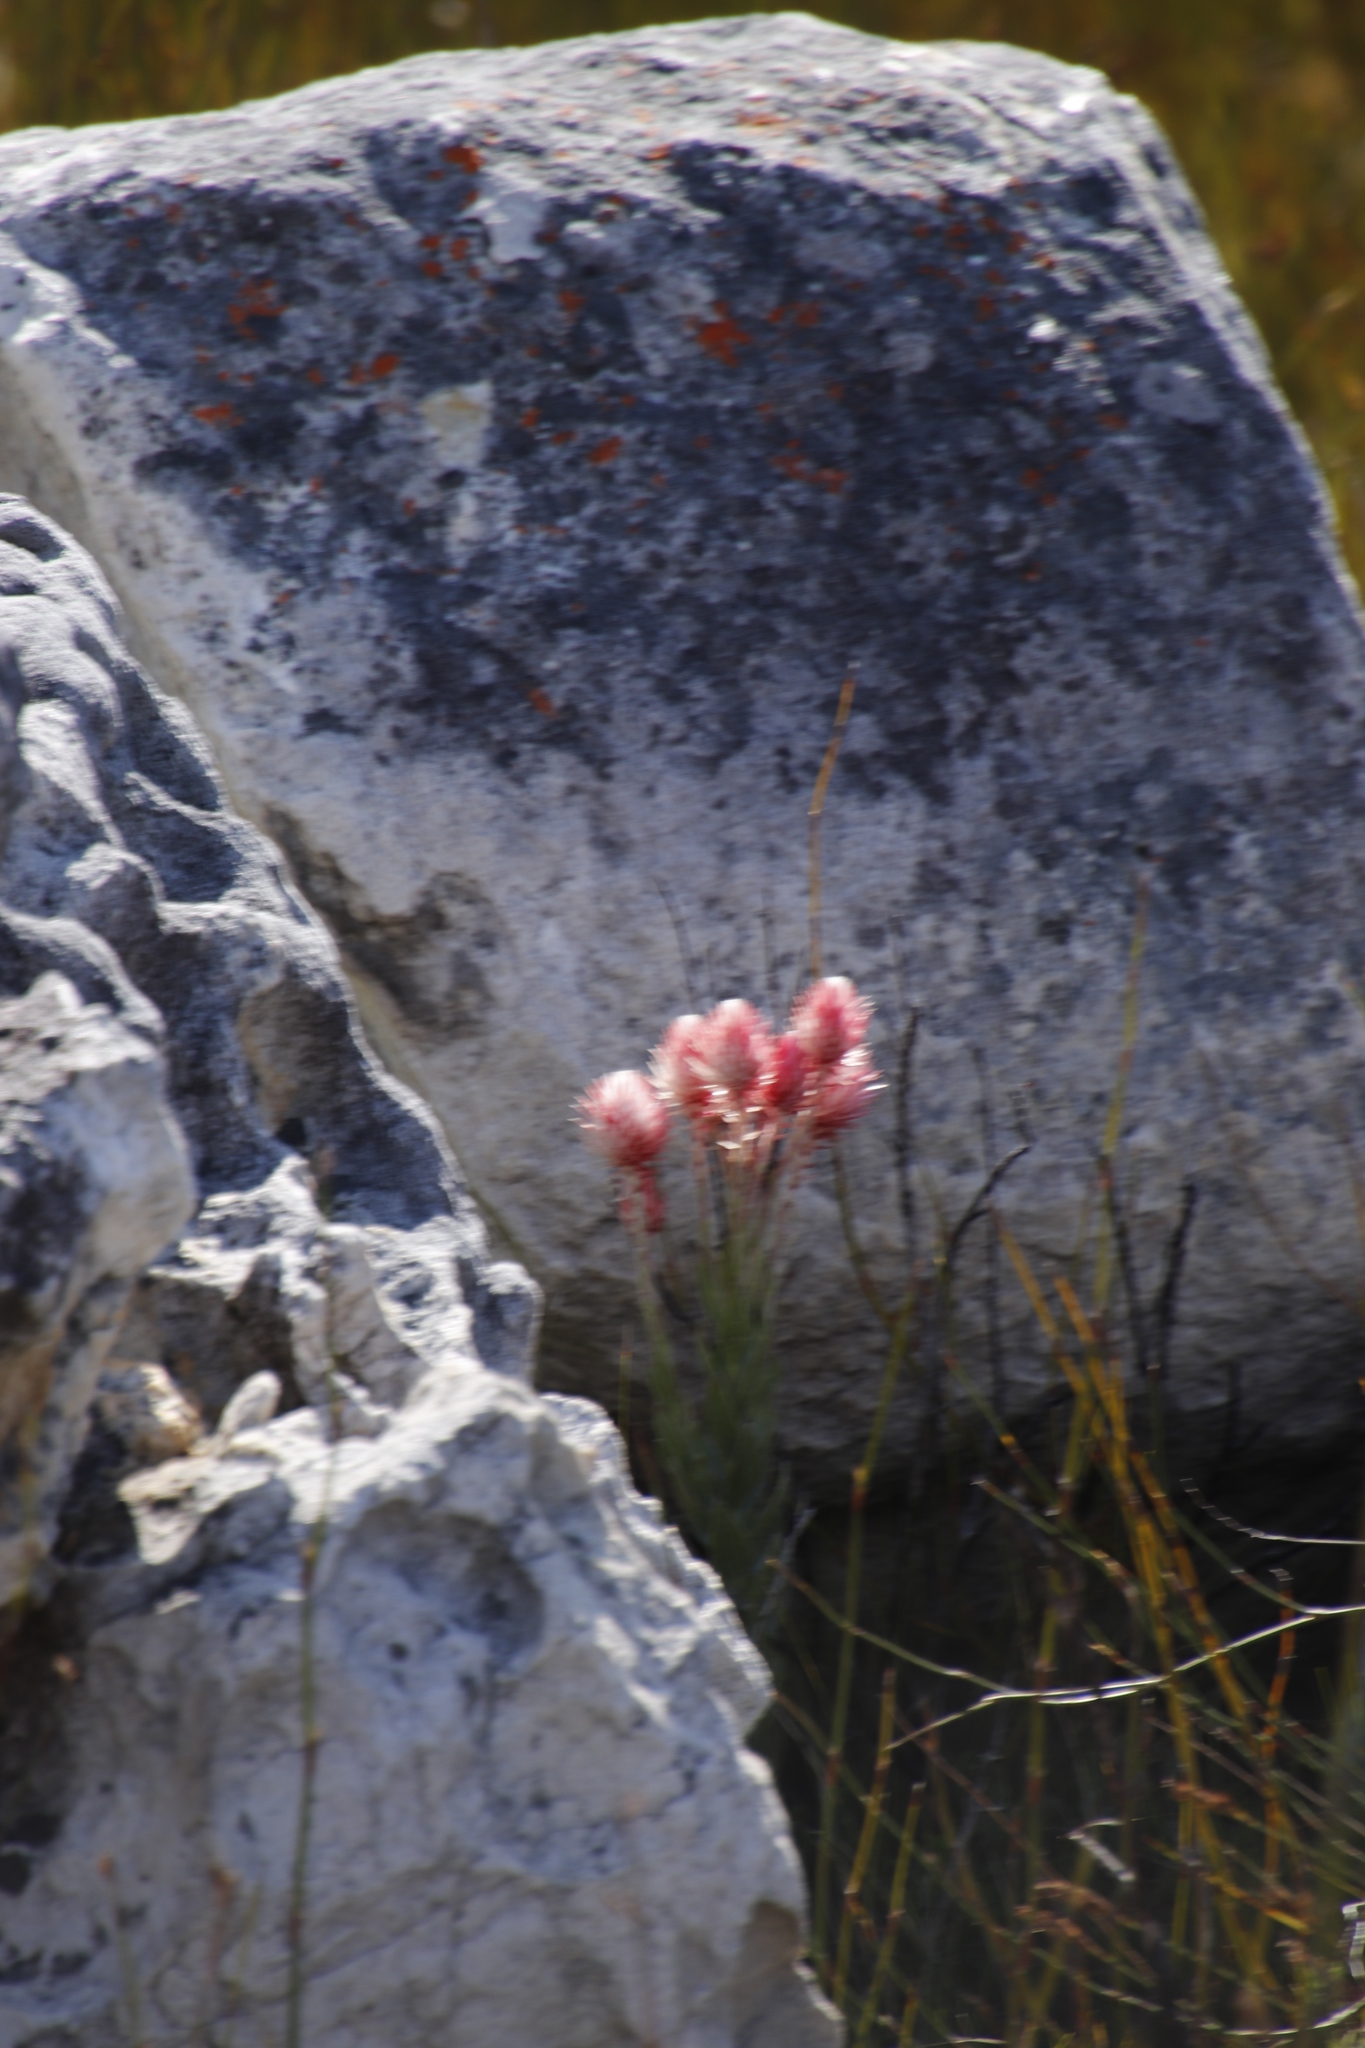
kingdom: Plantae
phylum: Tracheophyta
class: Magnoliopsida
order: Asterales
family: Asteraceae
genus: Syncarpha
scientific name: Syncarpha zeyheri
